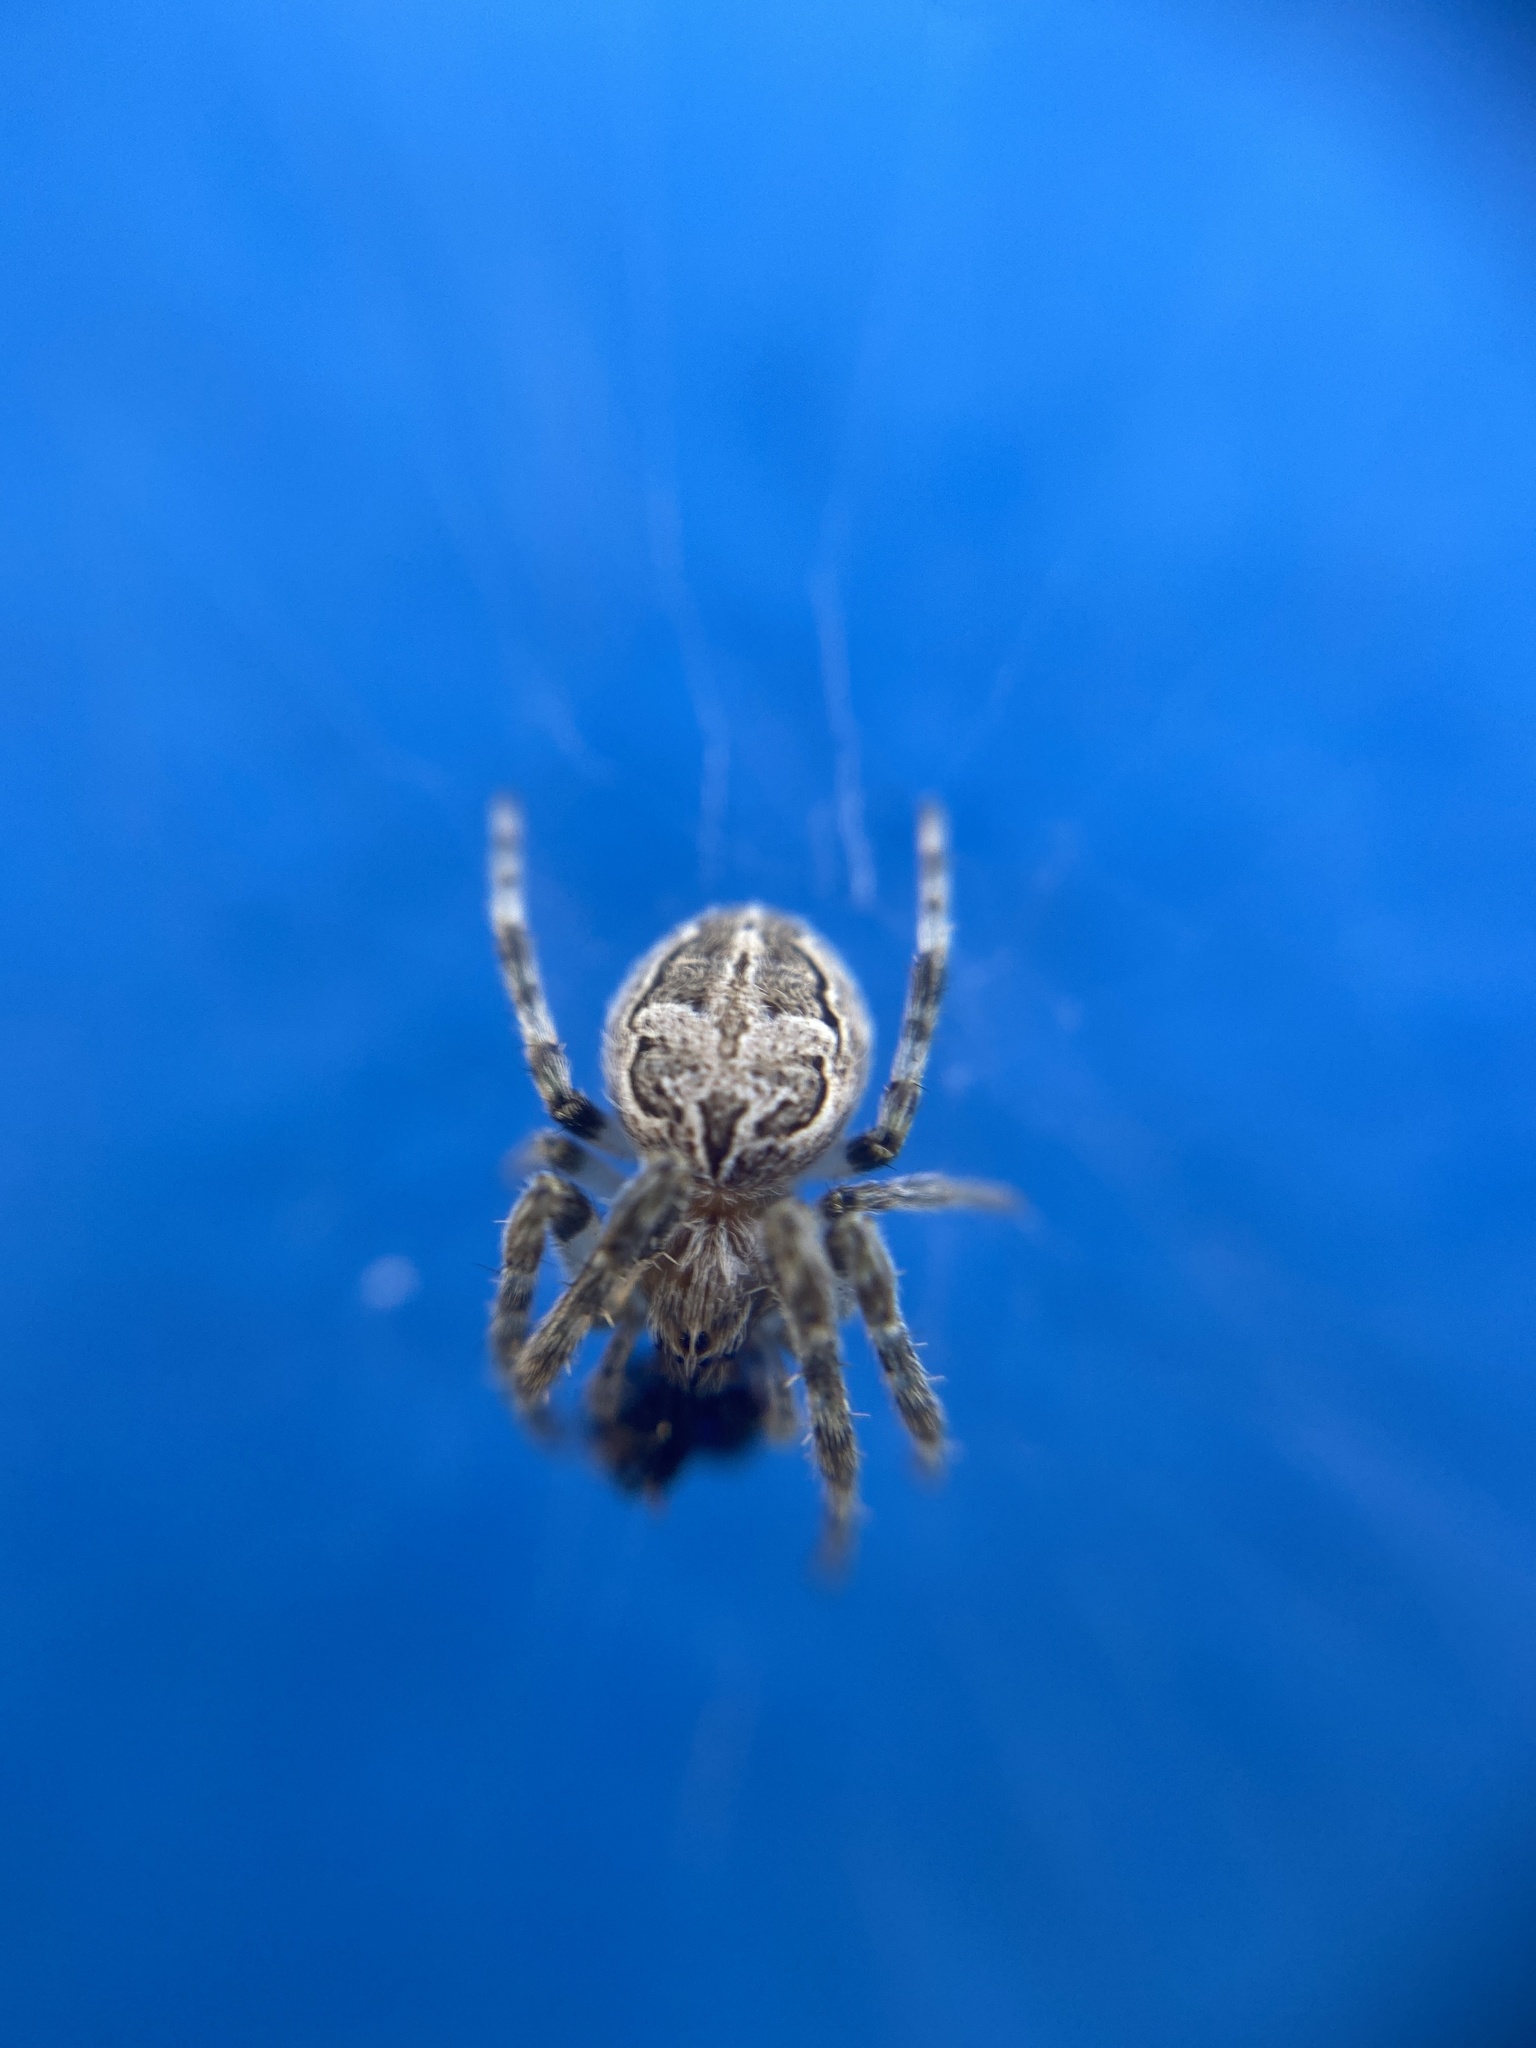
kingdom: Animalia
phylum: Arthropoda
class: Arachnida
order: Araneae
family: Araneidae
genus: Larinioides
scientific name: Larinioides sclopetarius
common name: Bridge orbweaver
